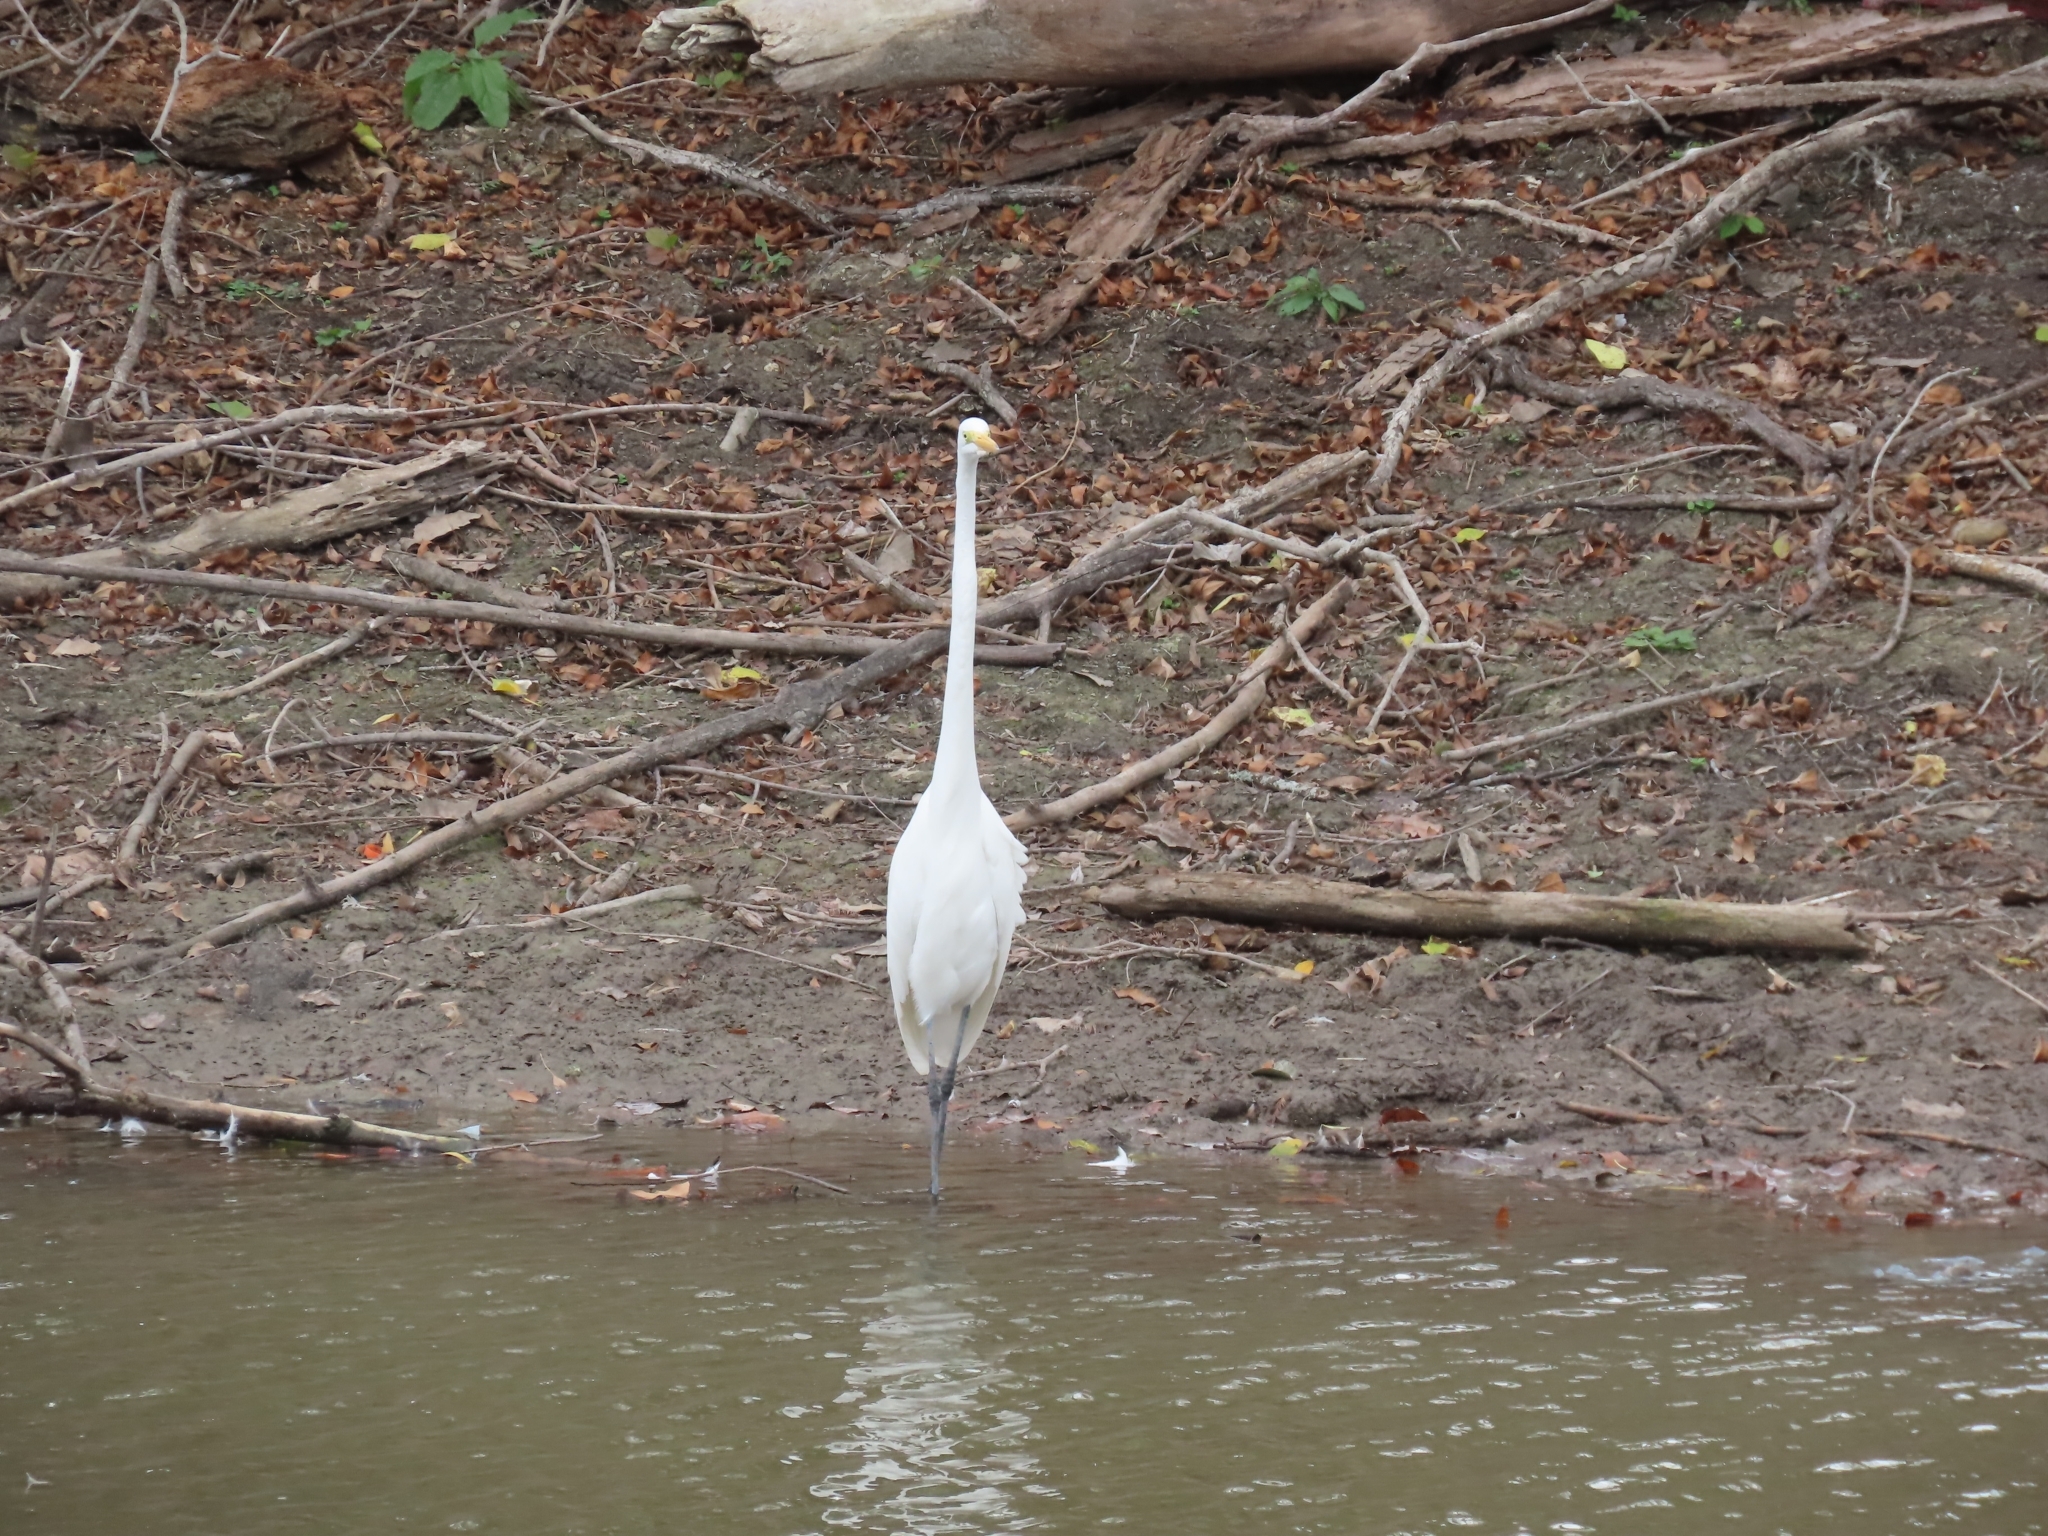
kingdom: Animalia
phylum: Chordata
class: Aves
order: Pelecaniformes
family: Ardeidae
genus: Ardea
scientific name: Ardea alba
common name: Great egret
